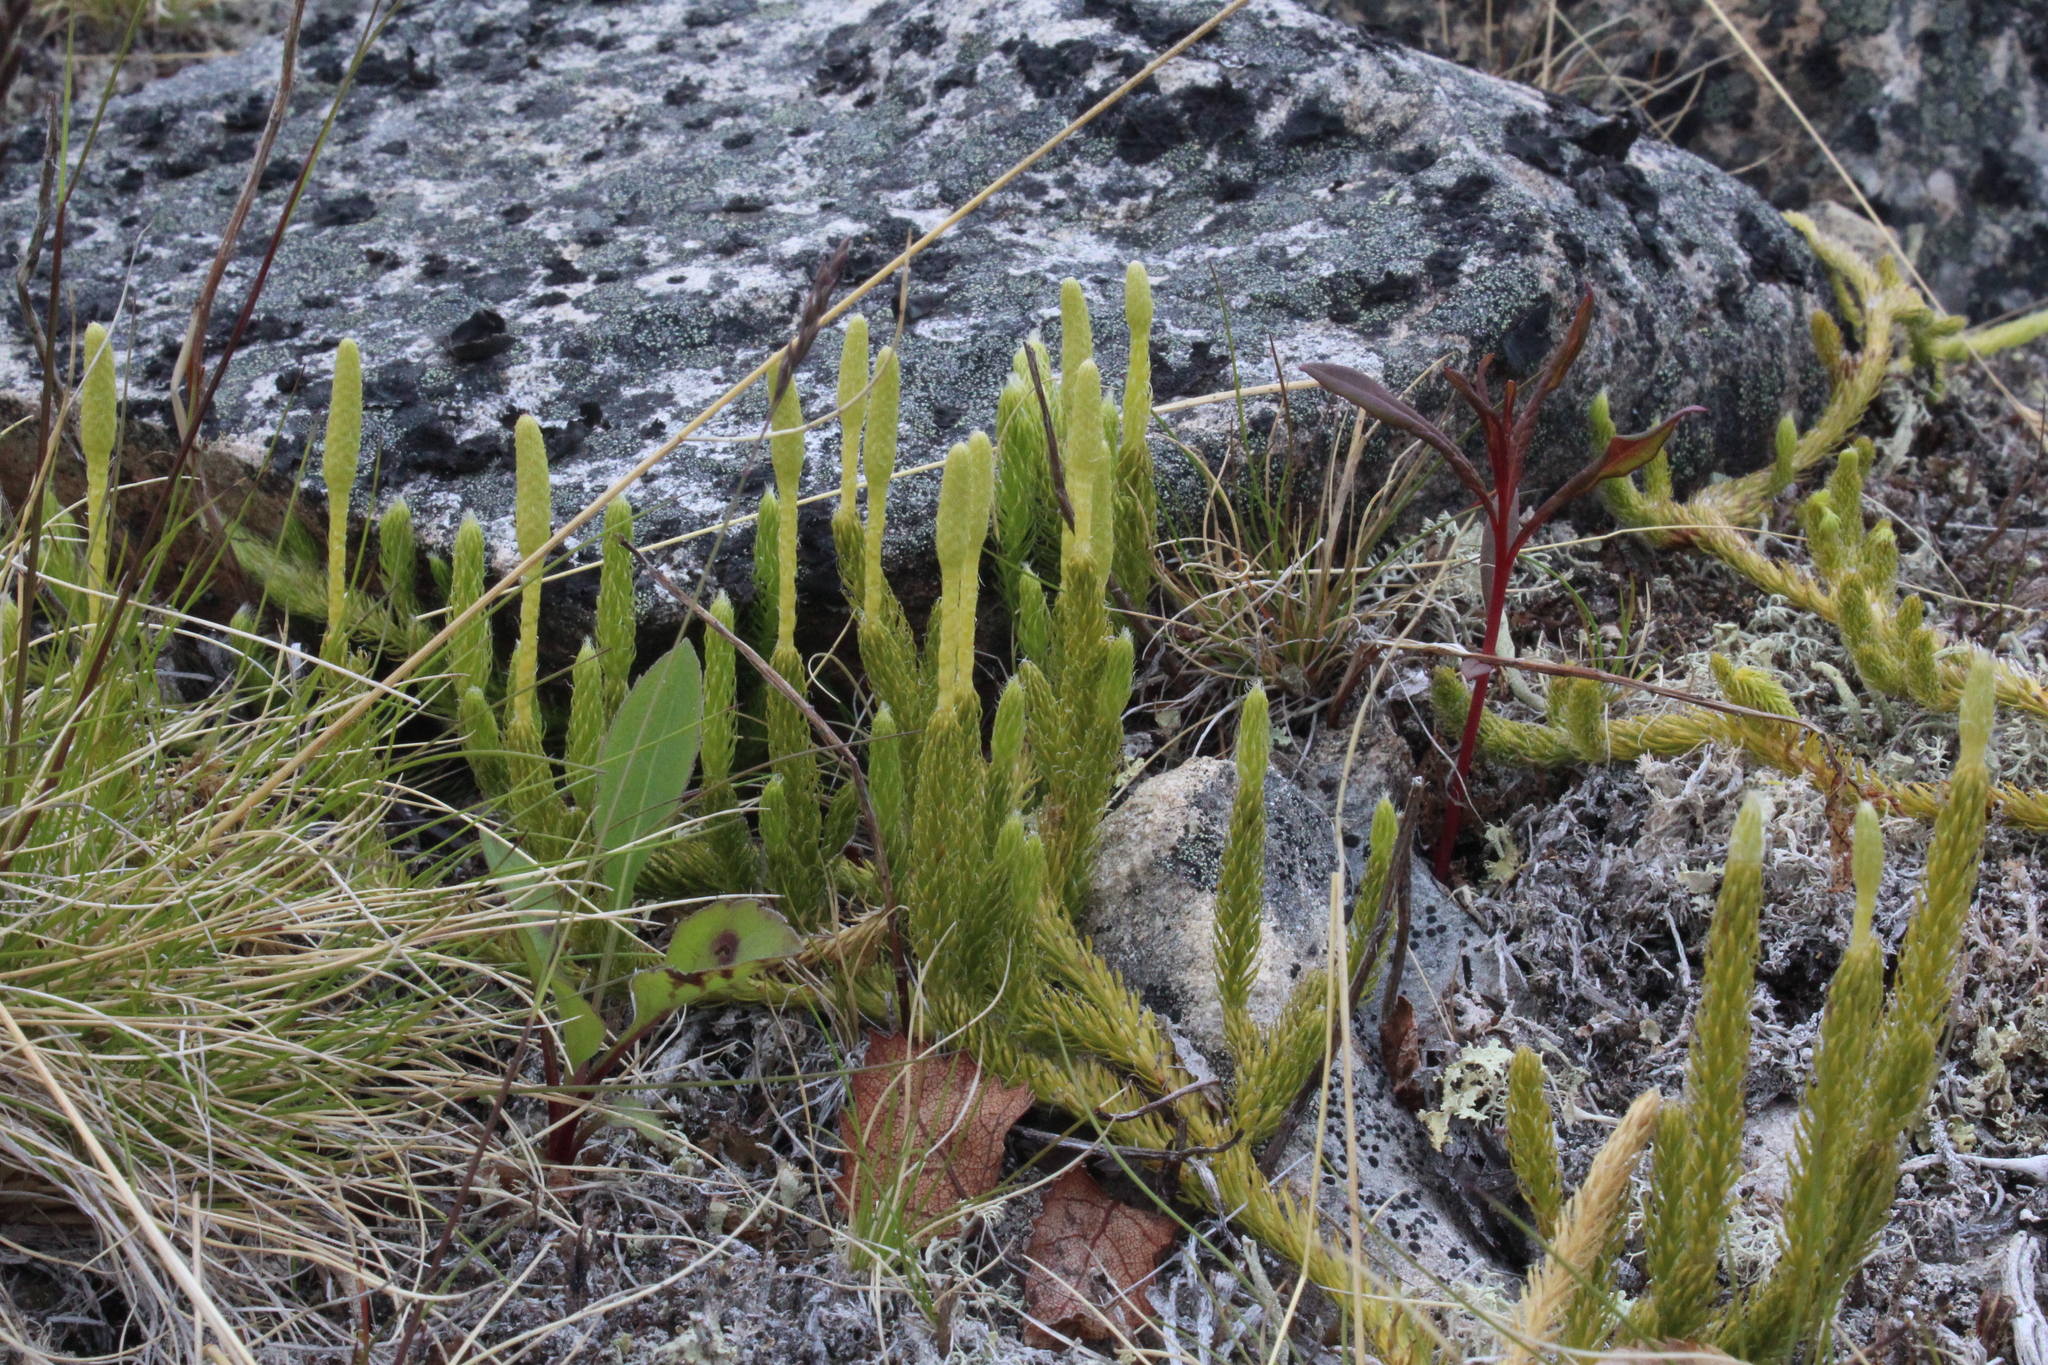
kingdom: Plantae
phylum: Tracheophyta
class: Lycopodiopsida
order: Lycopodiales
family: Lycopodiaceae
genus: Lycopodium
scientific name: Lycopodium lagopus
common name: One-cone clubmoss
